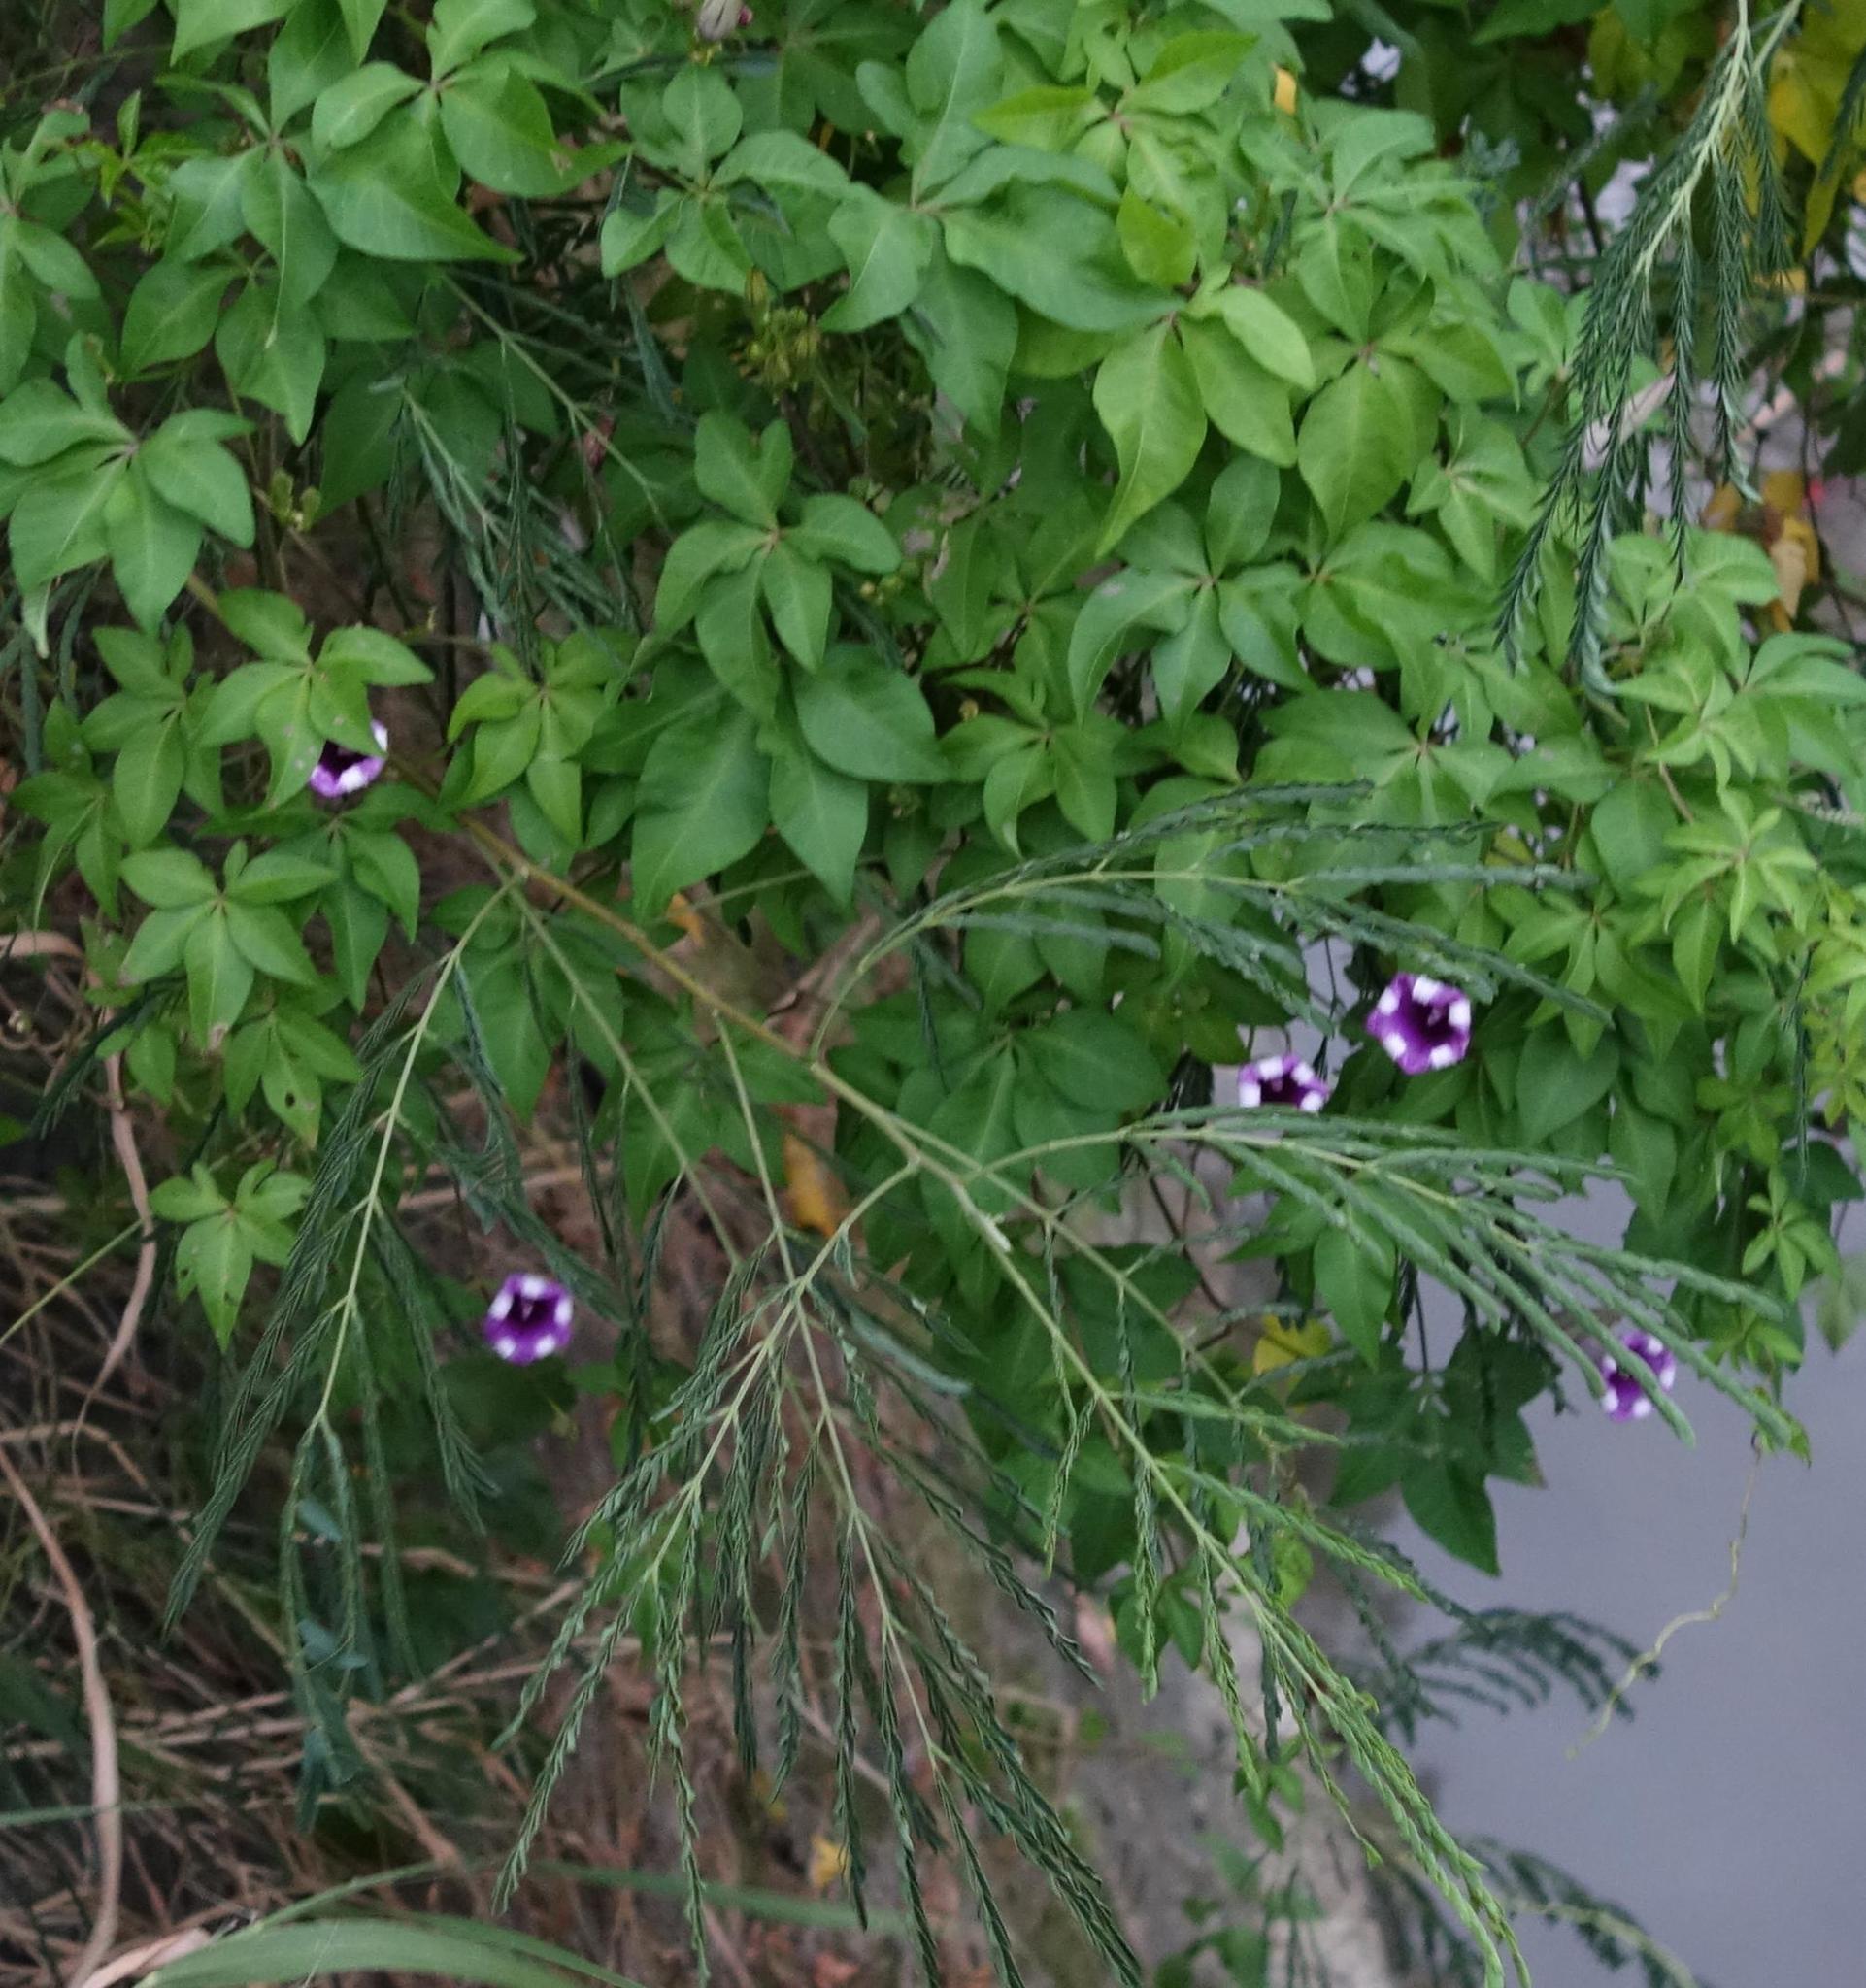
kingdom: Plantae
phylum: Tracheophyta
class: Magnoliopsida
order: Solanales
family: Convolvulaceae
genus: Ipomoea
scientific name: Ipomoea cairica
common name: Mile a minute vine
